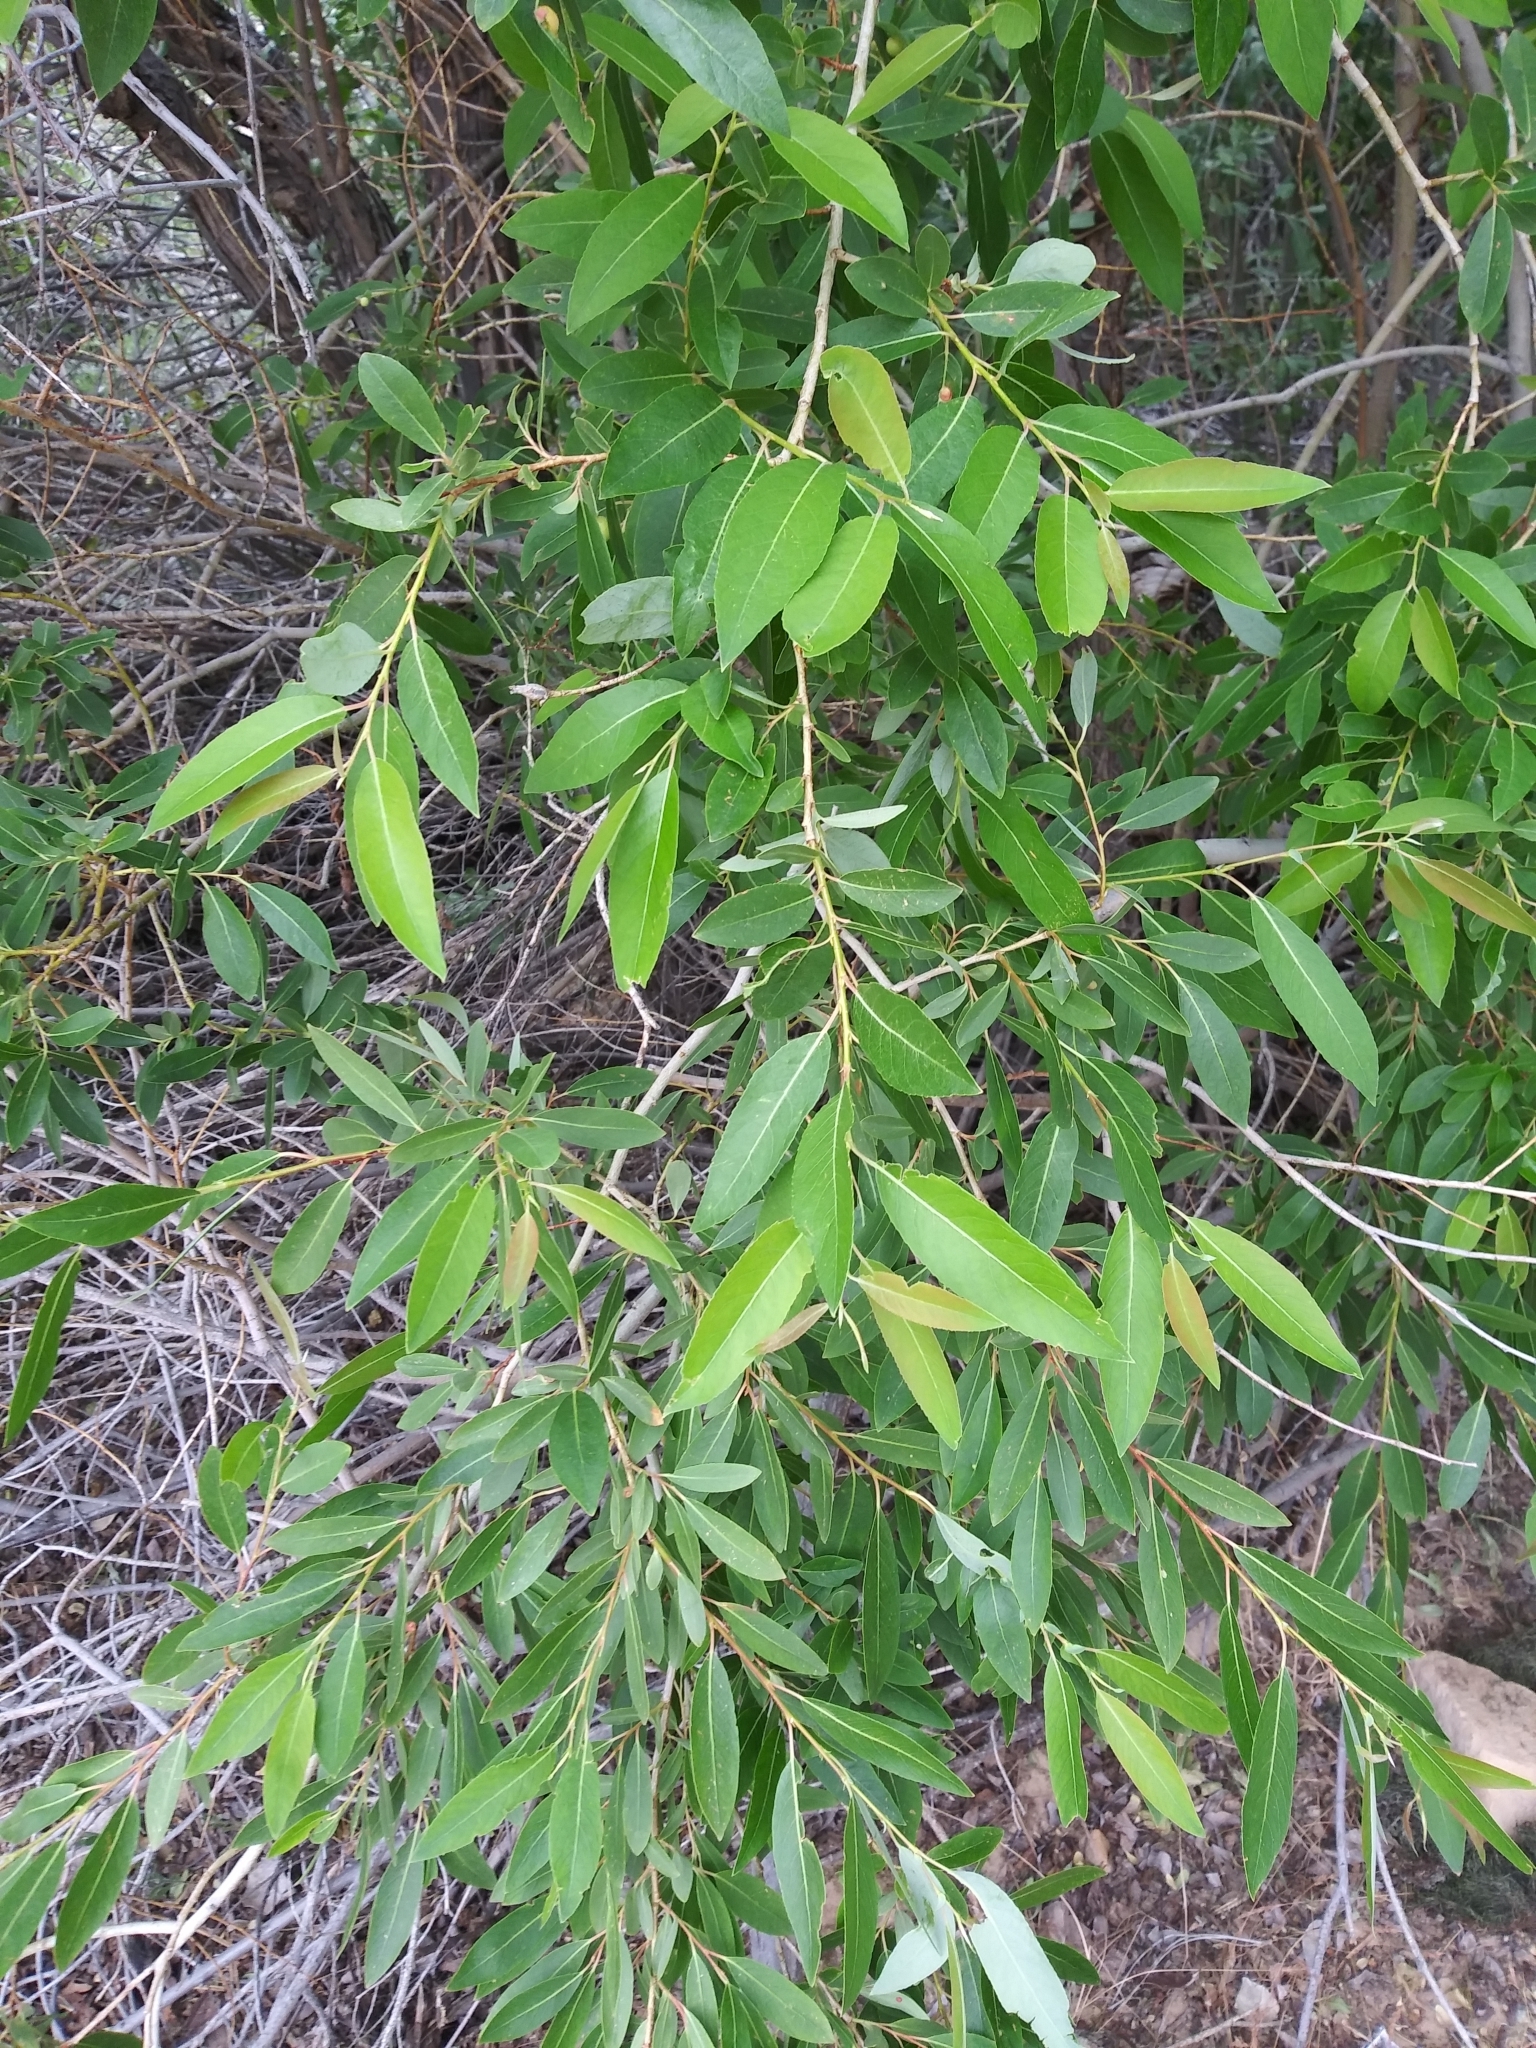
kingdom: Plantae
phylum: Tracheophyta
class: Magnoliopsida
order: Malpighiales
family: Salicaceae
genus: Salix
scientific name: Salix lutea
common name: Yellow willow
